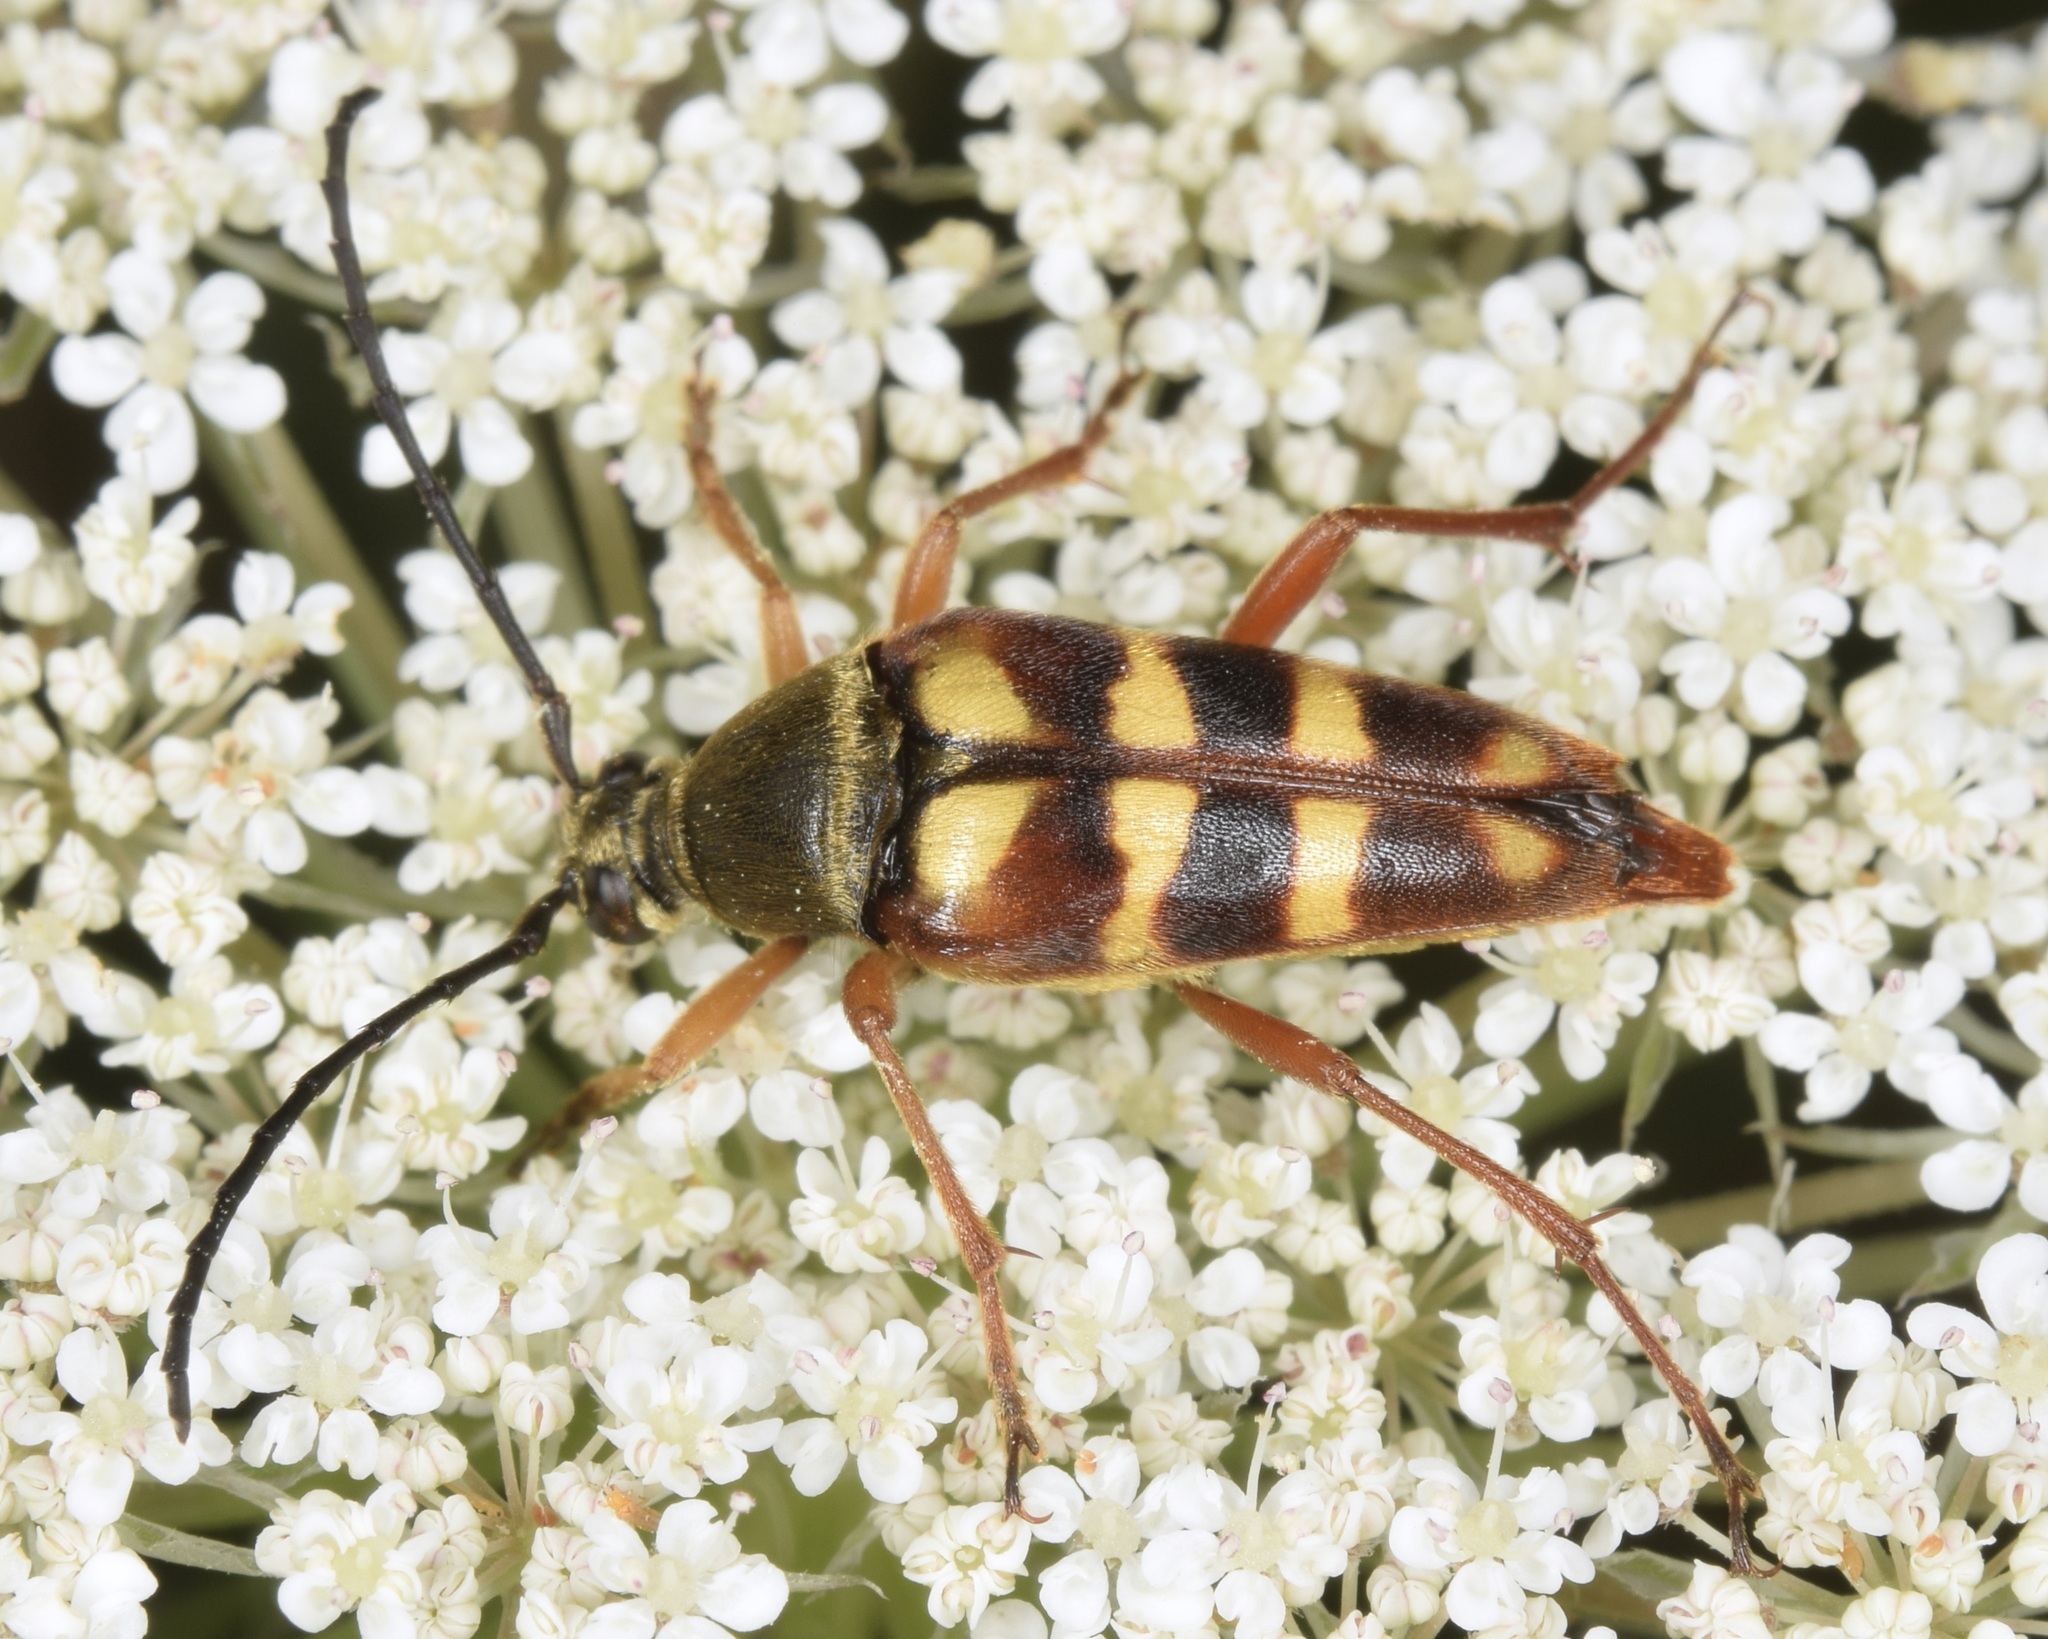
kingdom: Animalia
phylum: Arthropoda
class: Insecta
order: Coleoptera
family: Cerambycidae
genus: Typocerus
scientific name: Typocerus velutinus
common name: Banded longhorn beetle
